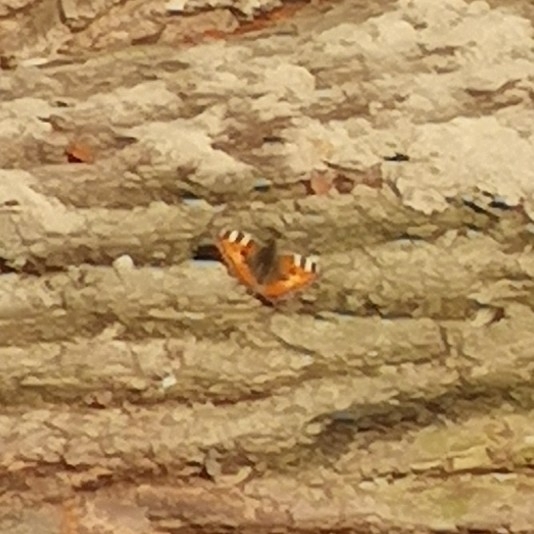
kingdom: Animalia
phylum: Arthropoda
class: Insecta
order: Lepidoptera
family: Nymphalidae
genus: Aglais
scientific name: Aglais urticae
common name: Small tortoiseshell
